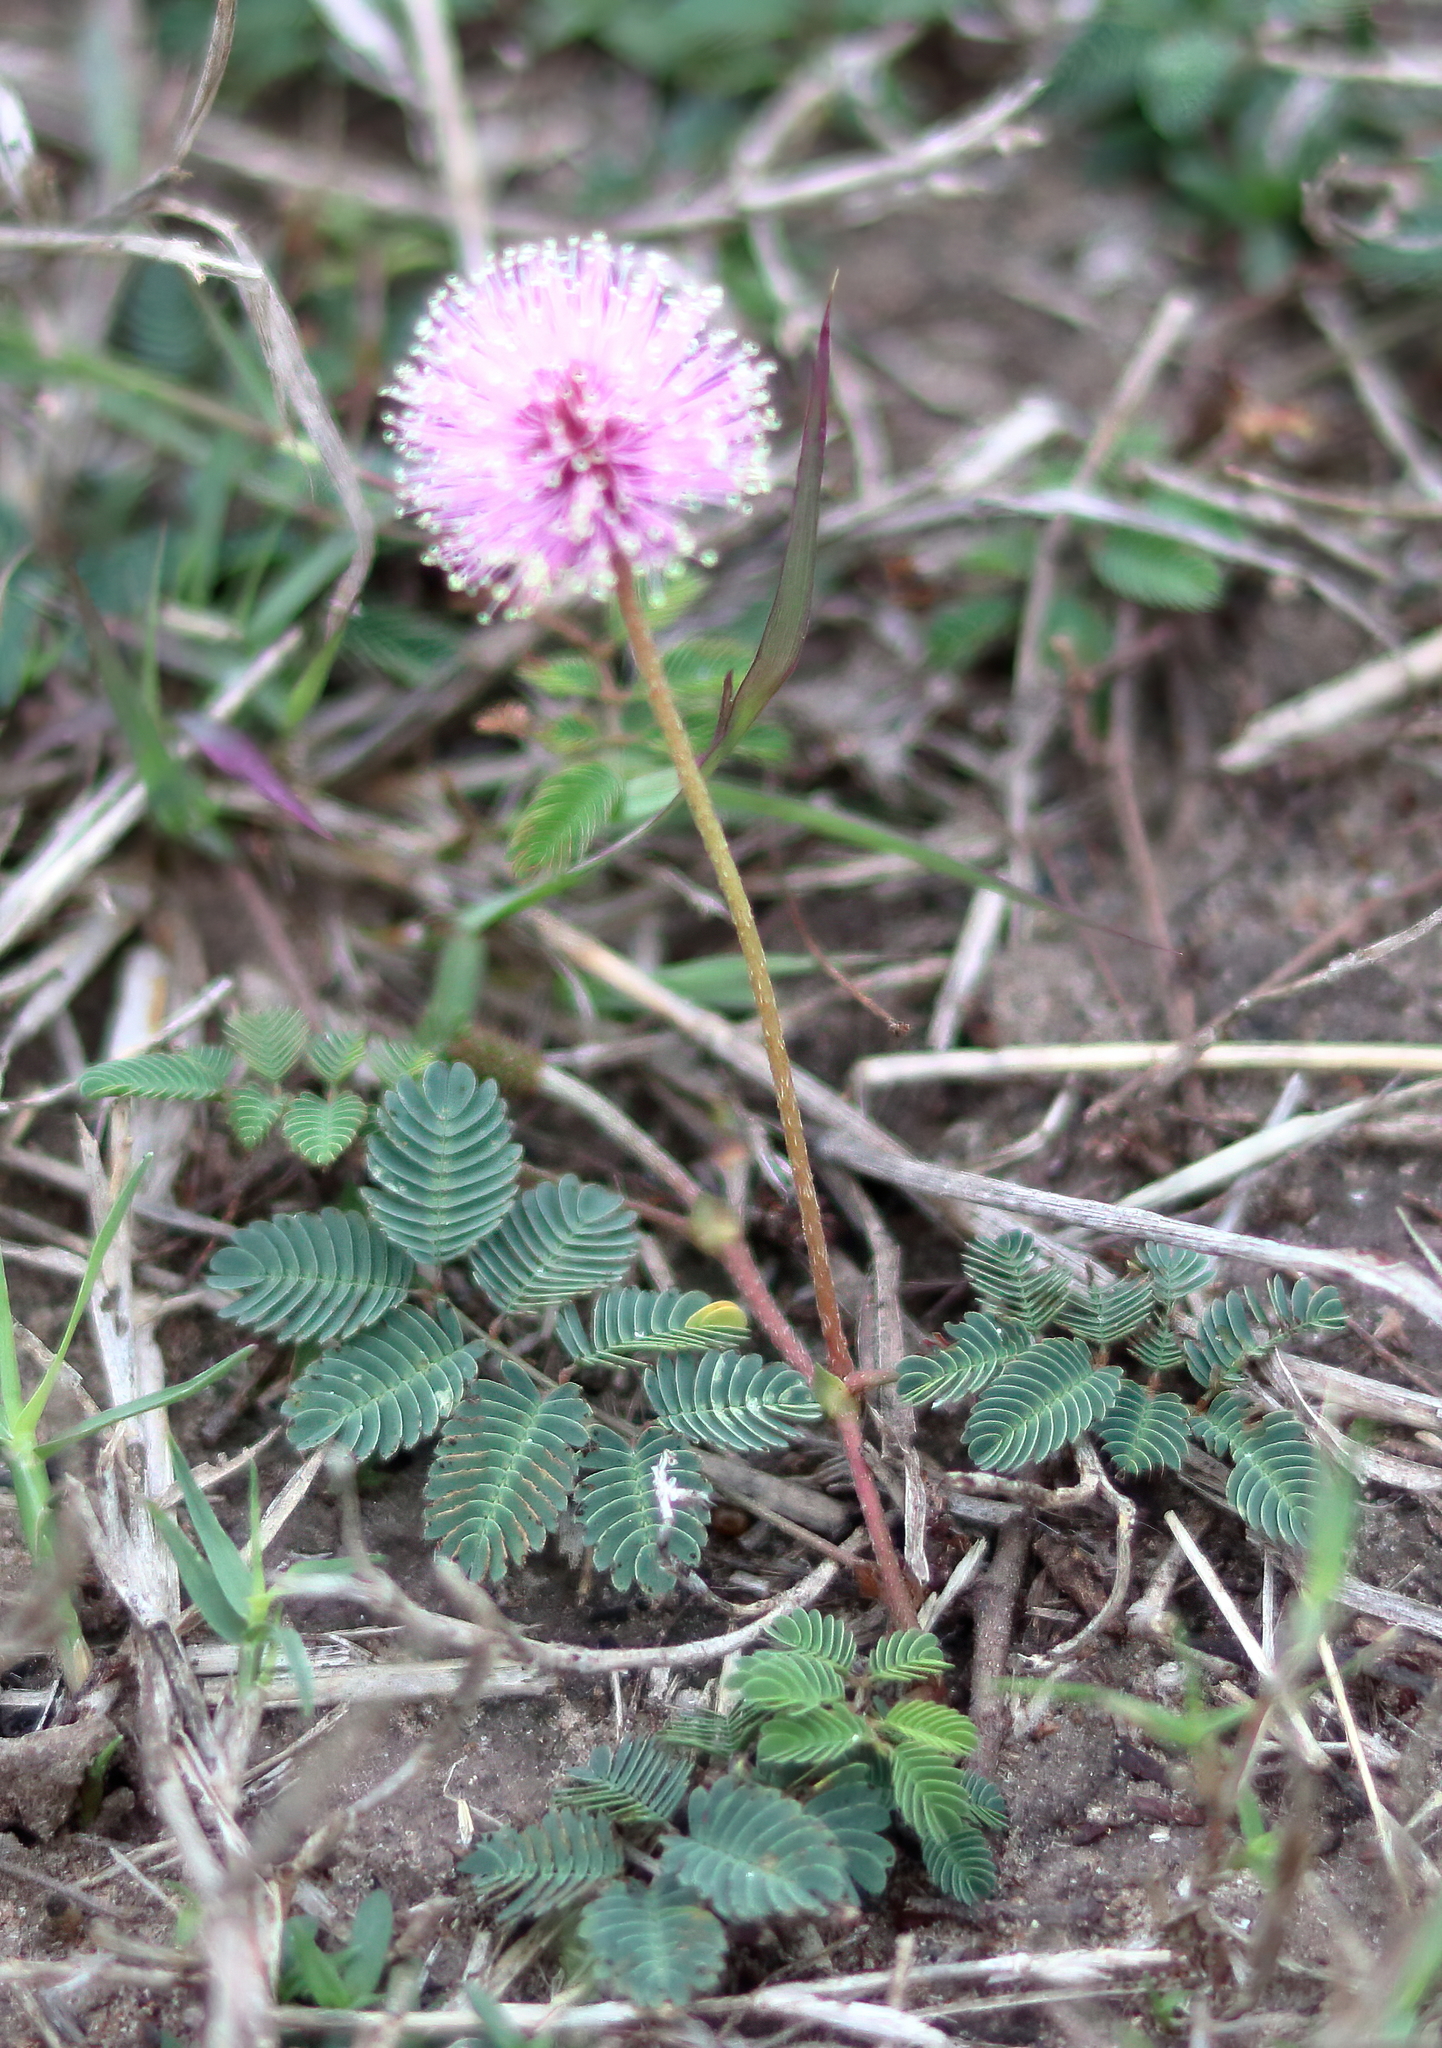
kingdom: Plantae
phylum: Tracheophyta
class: Magnoliopsida
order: Fabales
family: Fabaceae
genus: Mimosa
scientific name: Mimosa strigillosa
